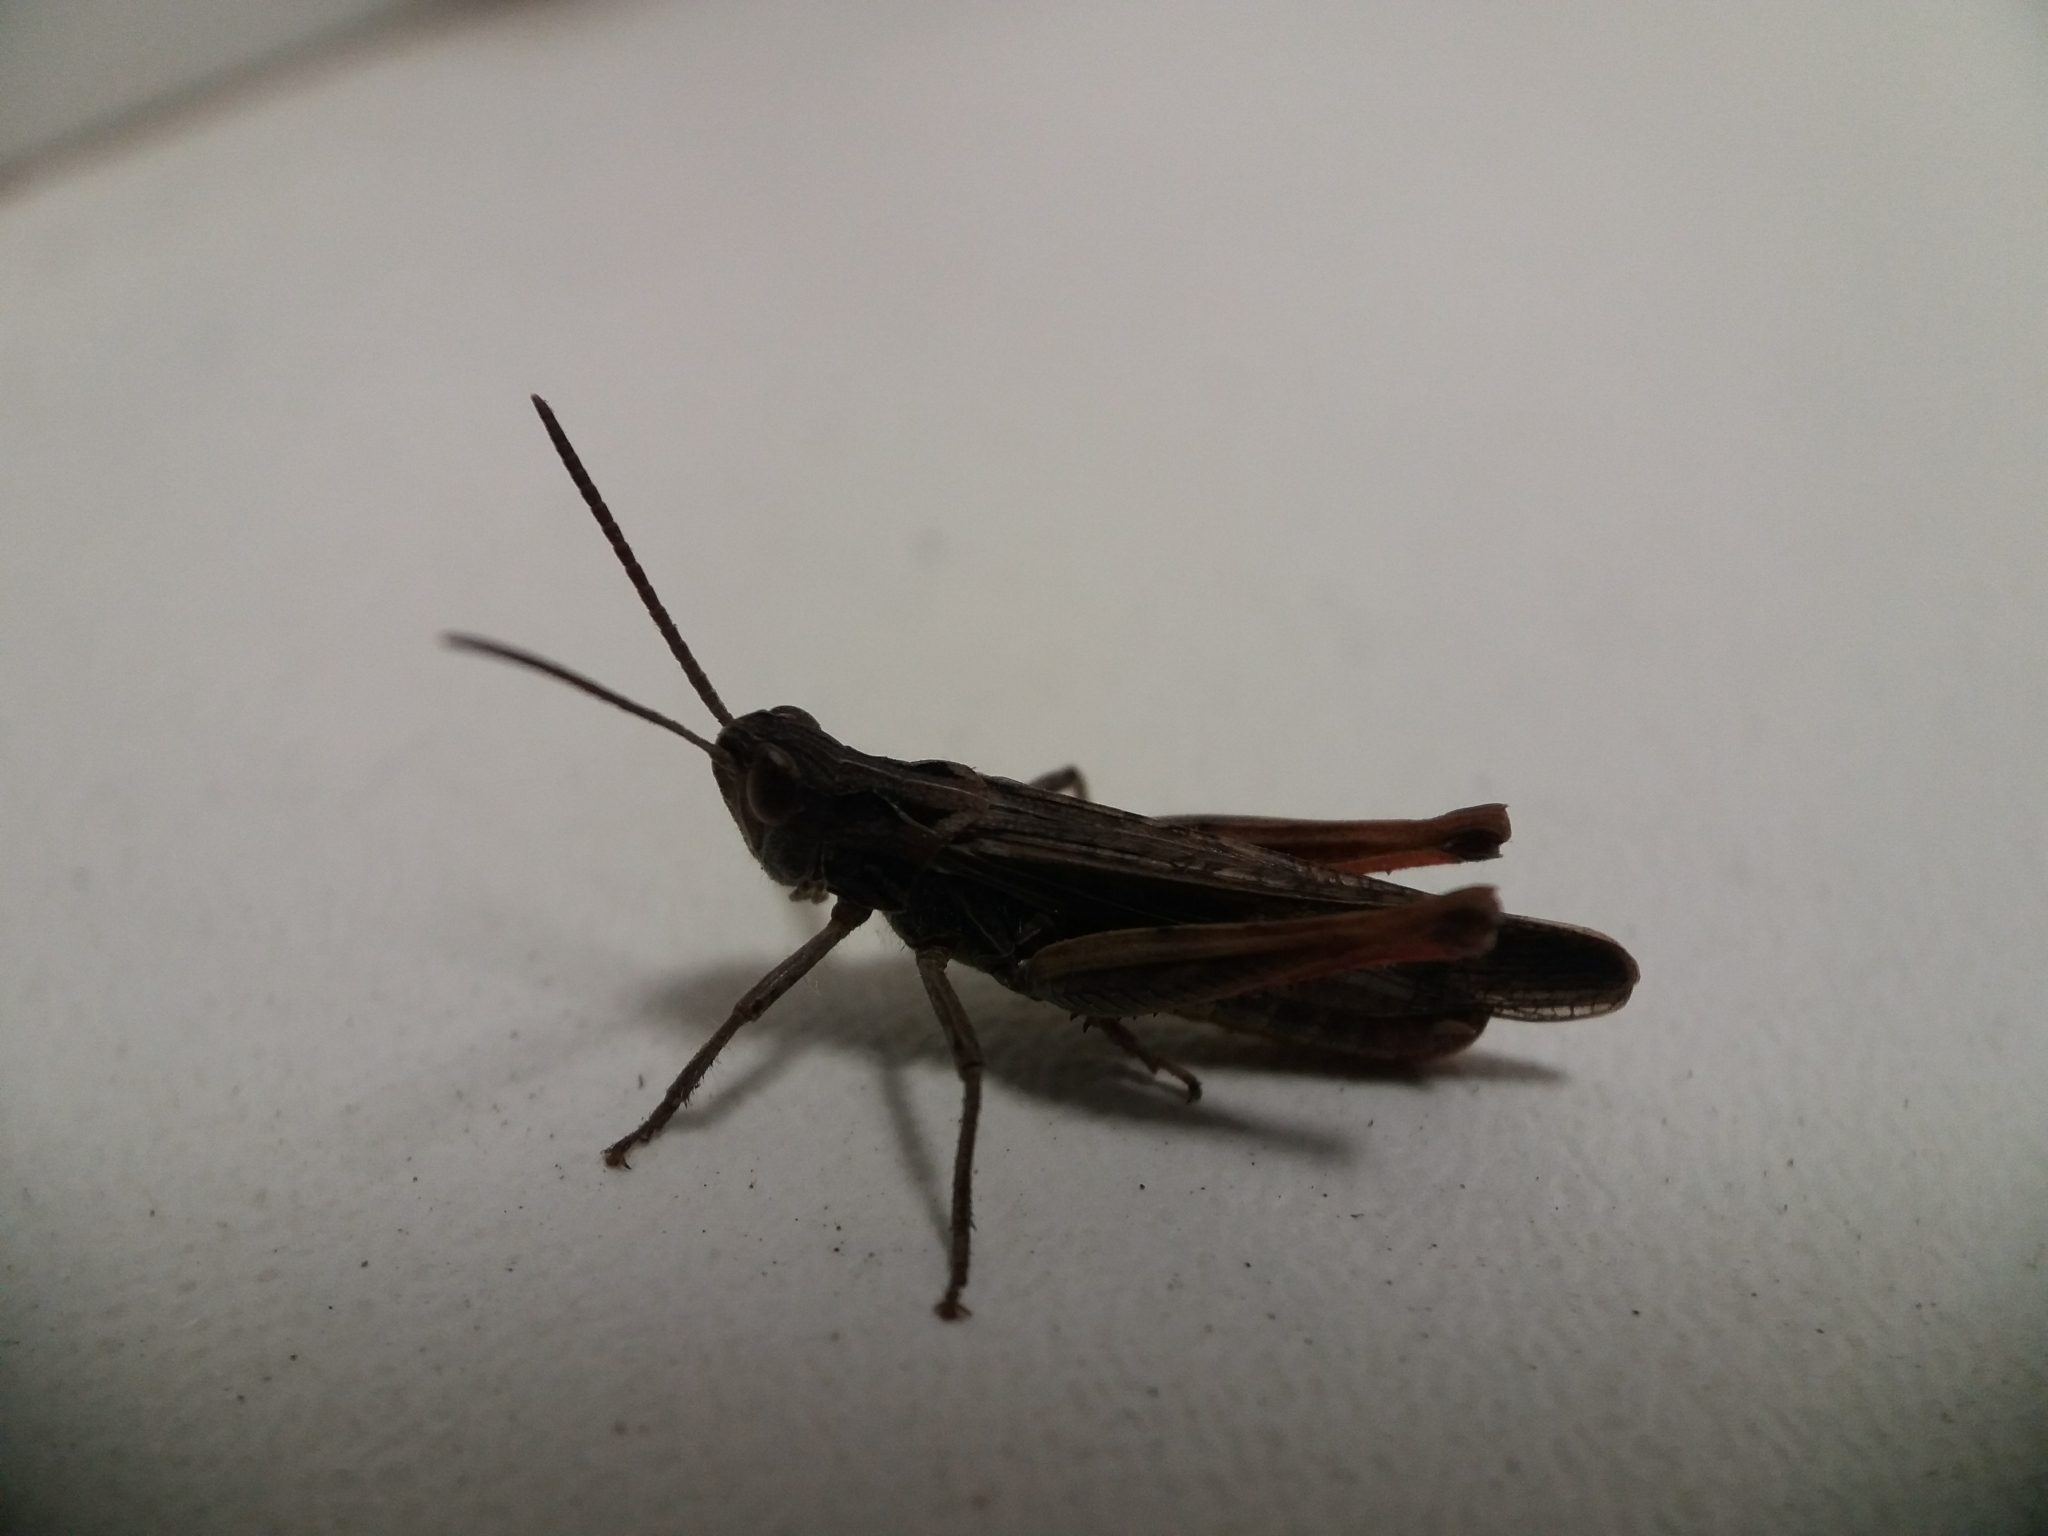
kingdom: Animalia
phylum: Arthropoda
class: Insecta
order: Orthoptera
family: Acrididae
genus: Chorthippus
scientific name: Chorthippus brunneus
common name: Field grasshopper
